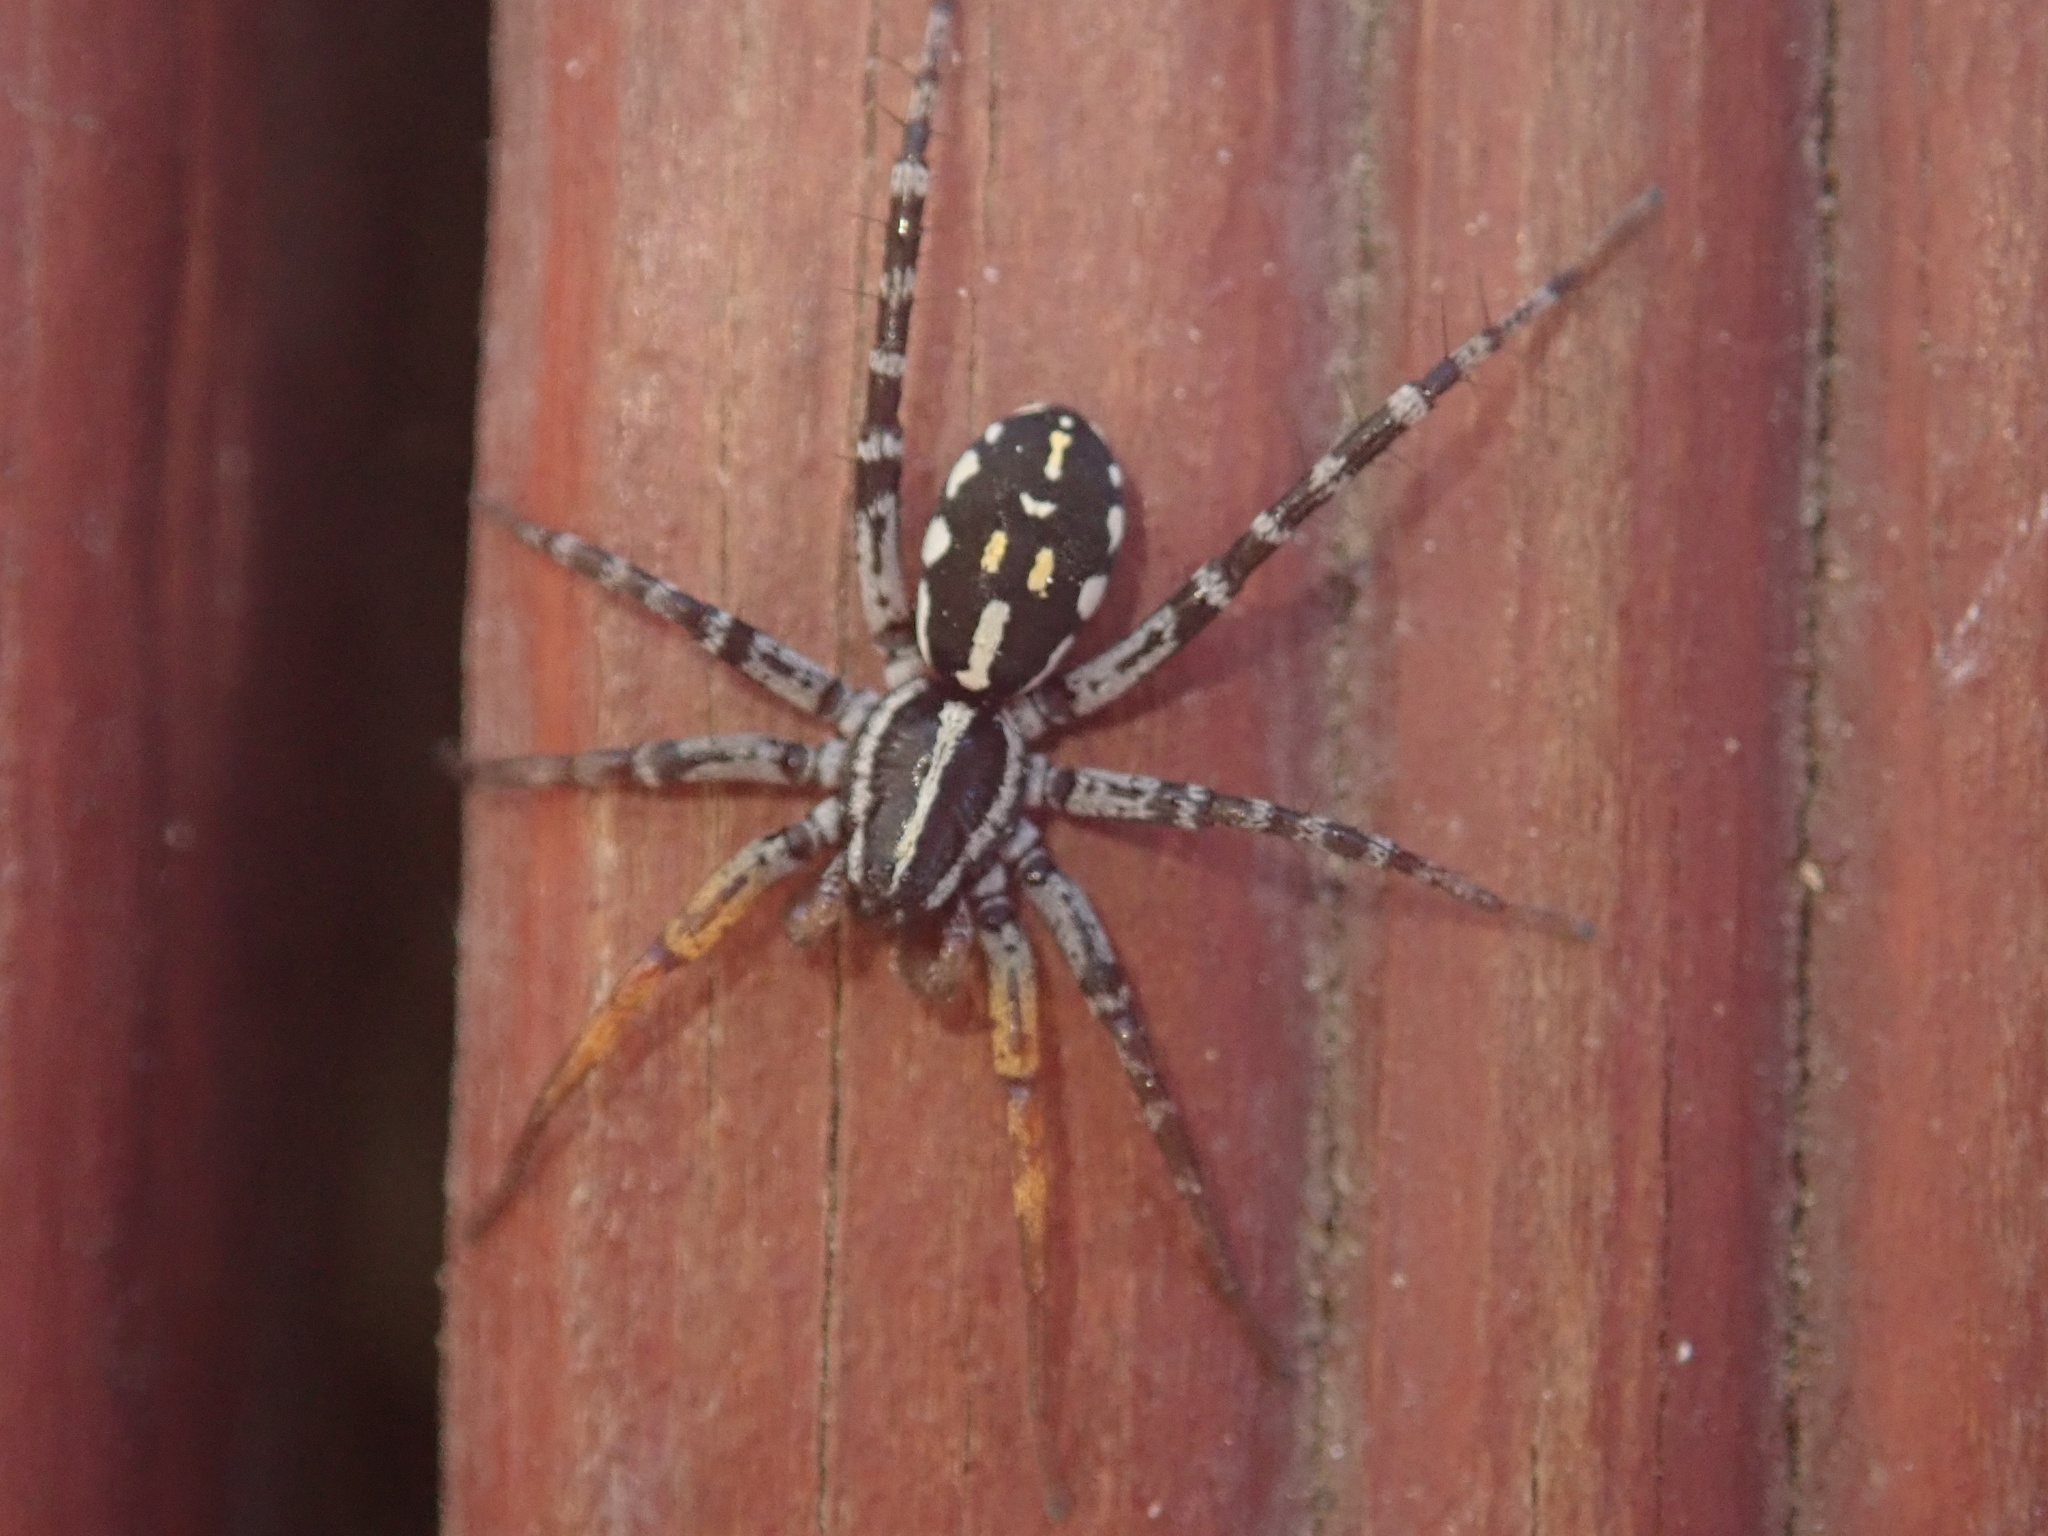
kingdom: Animalia
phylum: Arthropoda
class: Arachnida
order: Araneae
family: Corinnidae
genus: Nyssus
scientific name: Nyssus coloripes
